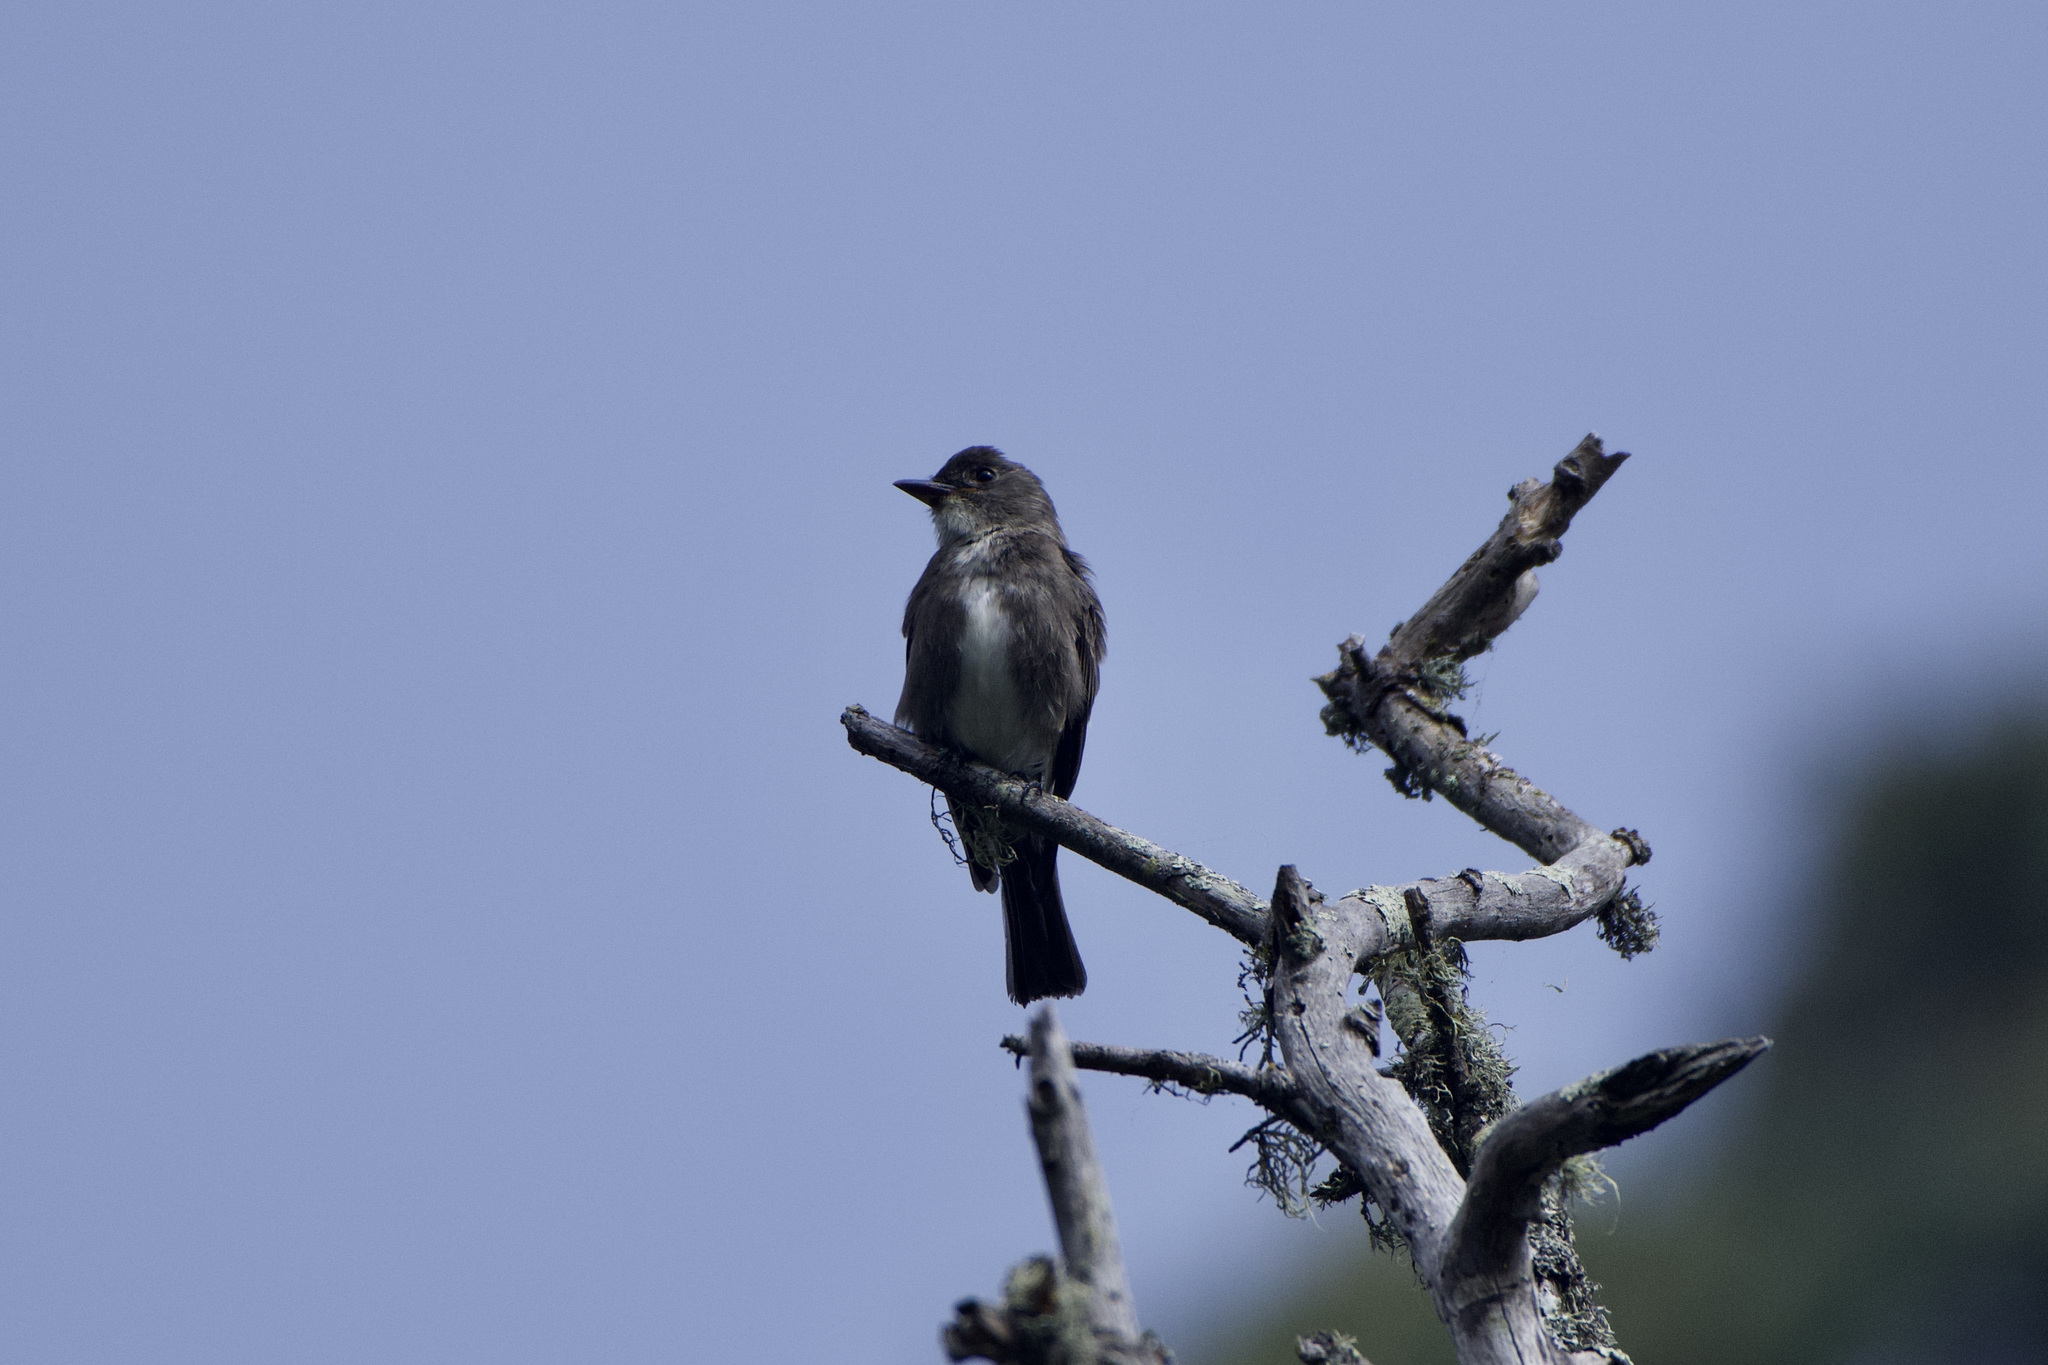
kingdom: Animalia
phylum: Chordata
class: Aves
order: Passeriformes
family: Tyrannidae
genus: Contopus
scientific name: Contopus cooperi
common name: Olive-sided flycatcher
